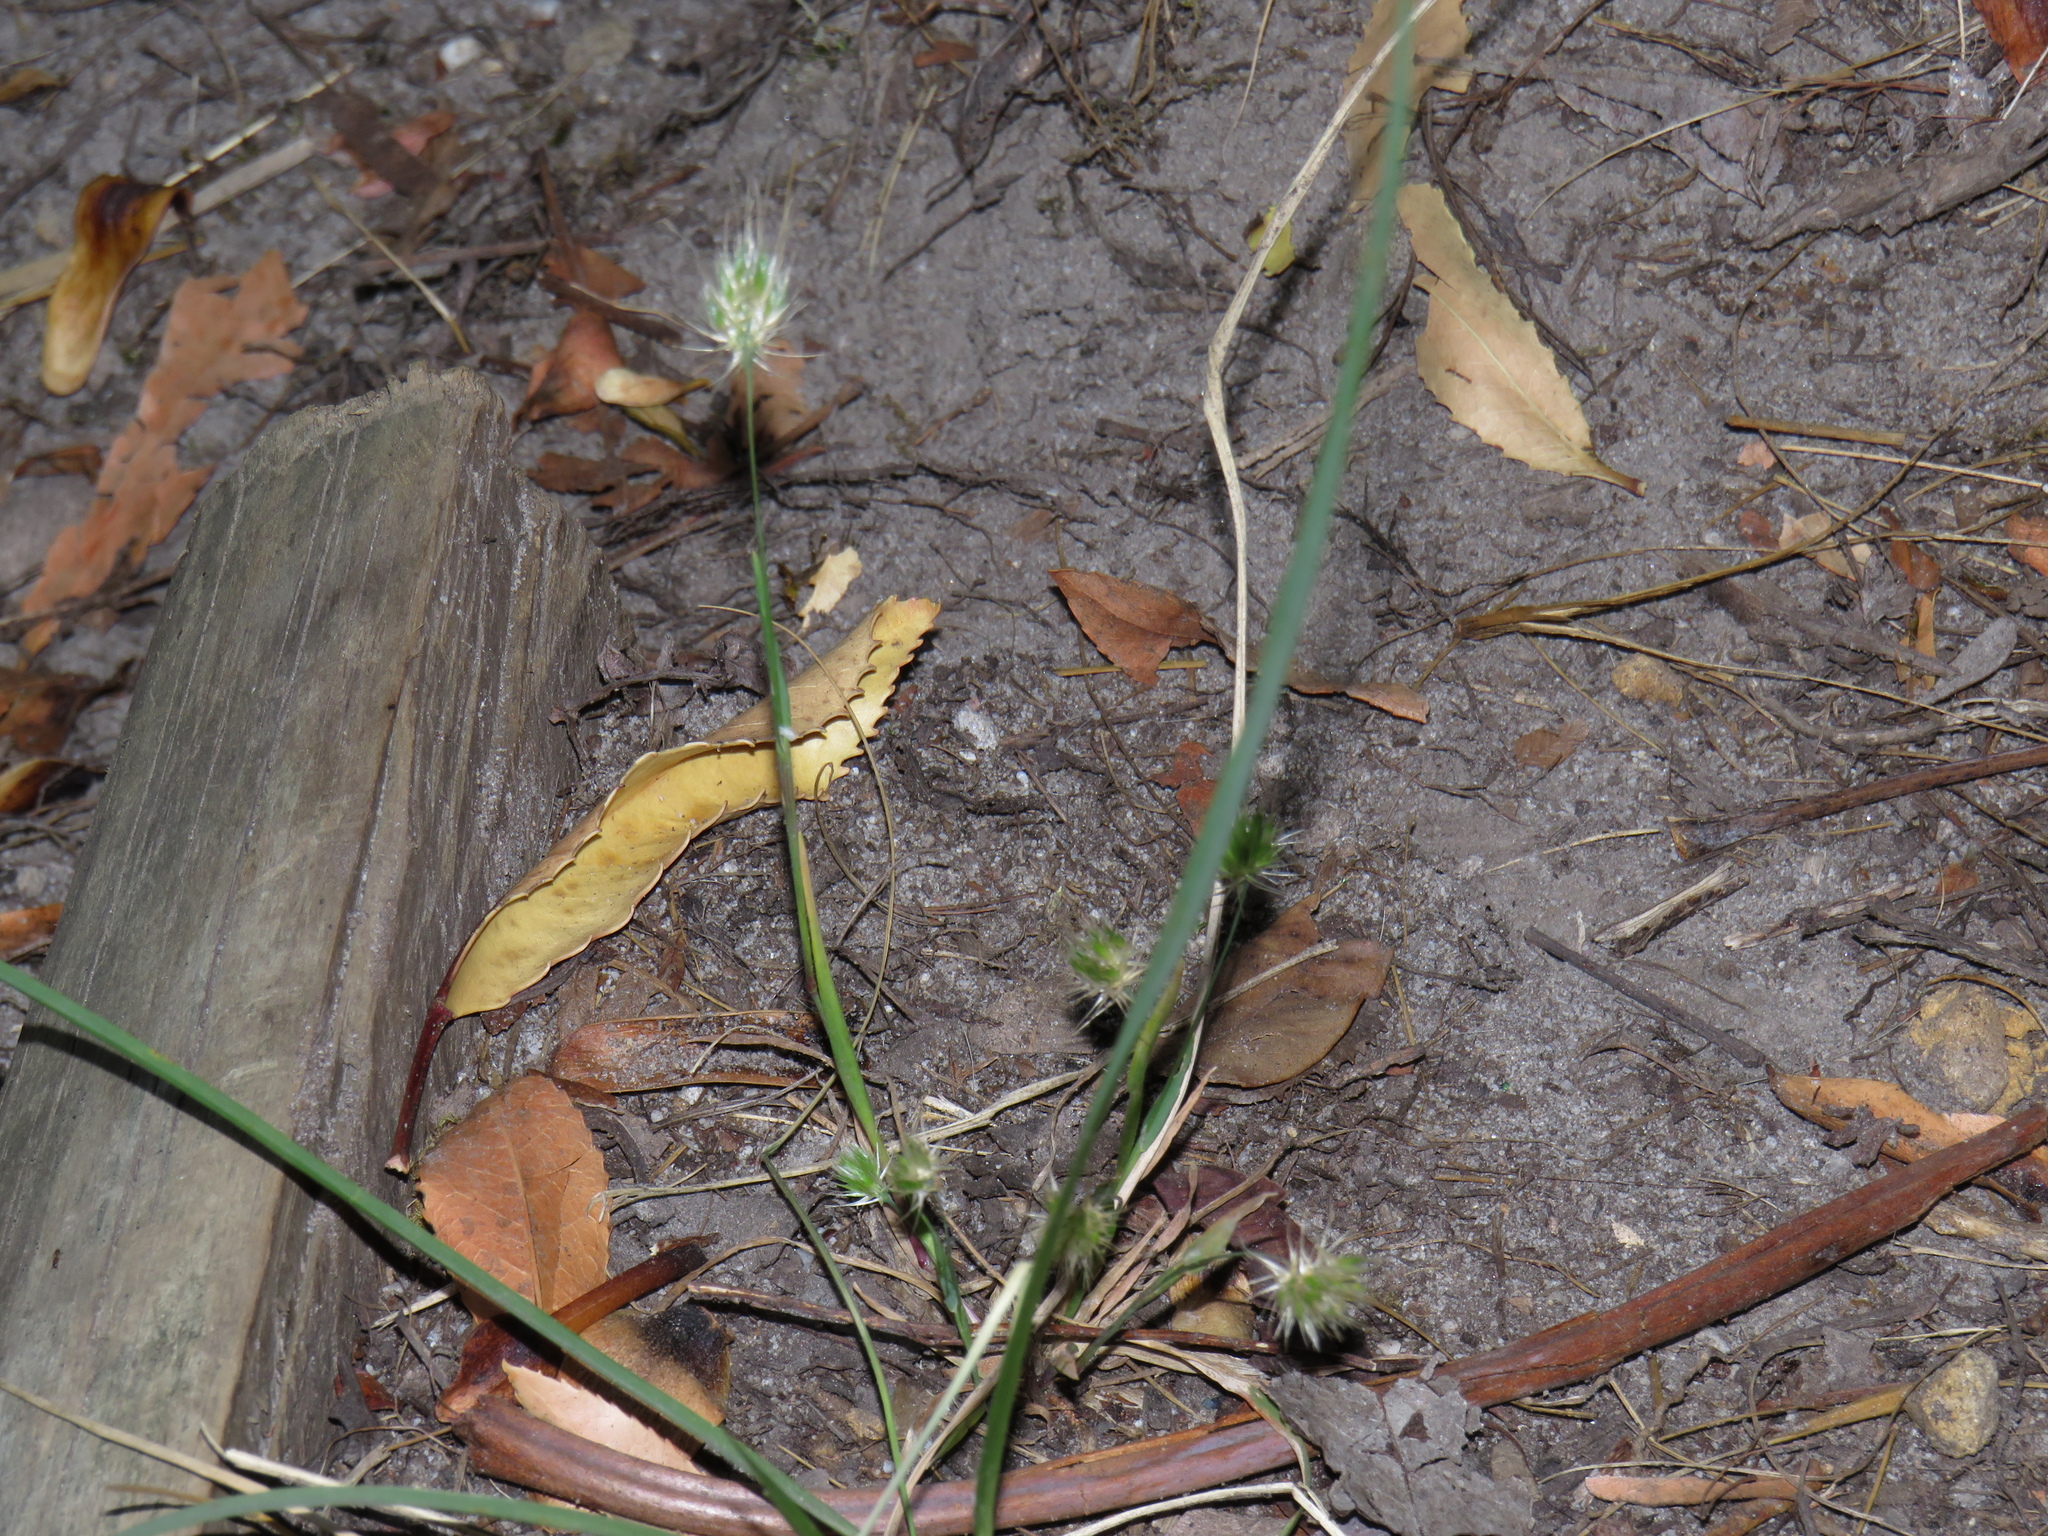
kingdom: Plantae
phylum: Tracheophyta
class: Liliopsida
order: Poales
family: Poaceae
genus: Cynosurus
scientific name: Cynosurus echinatus
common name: Rough dog's-tail
